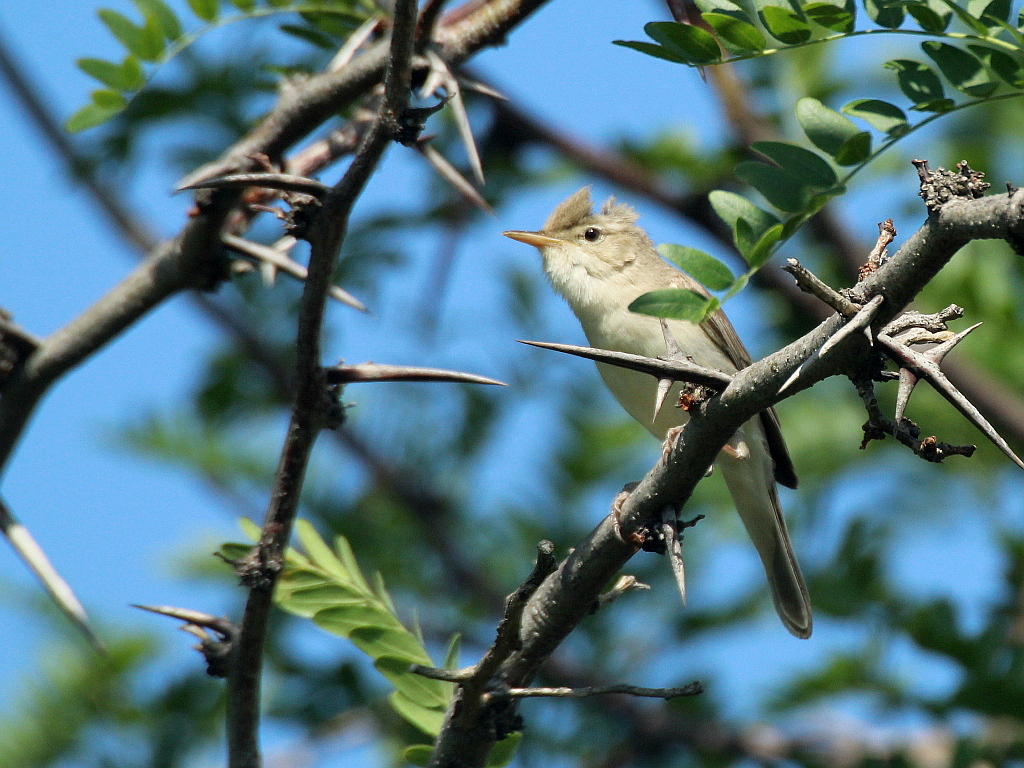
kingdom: Animalia
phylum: Chordata
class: Aves
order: Passeriformes
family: Acrocephalidae
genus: Iduna
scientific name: Iduna pallida
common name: Eastern olivaceous warbler
